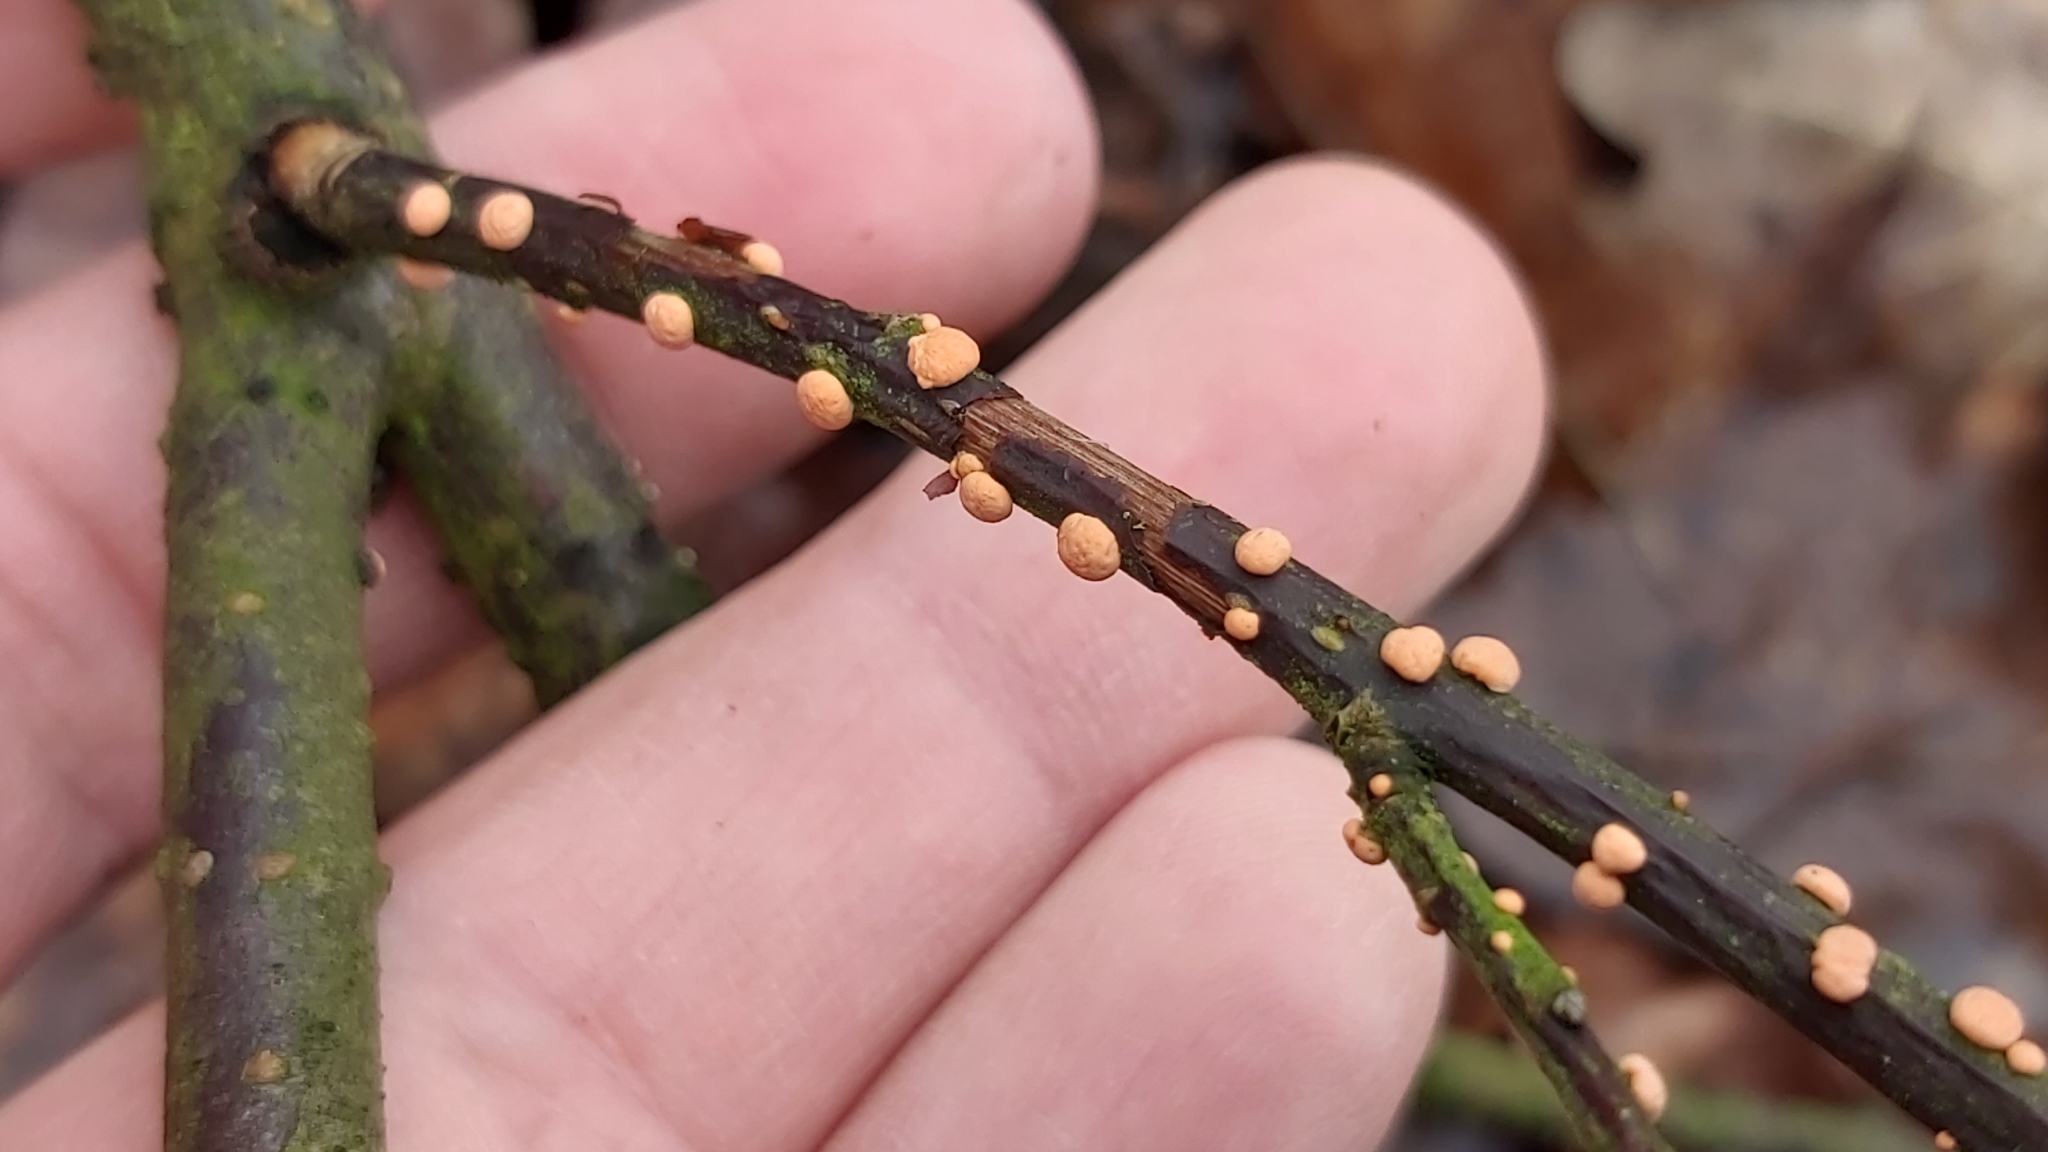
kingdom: Fungi
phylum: Ascomycota
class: Sordariomycetes
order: Hypocreales
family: Nectriaceae
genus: Nectria
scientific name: Nectria cinnabarina
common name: Coral spot
